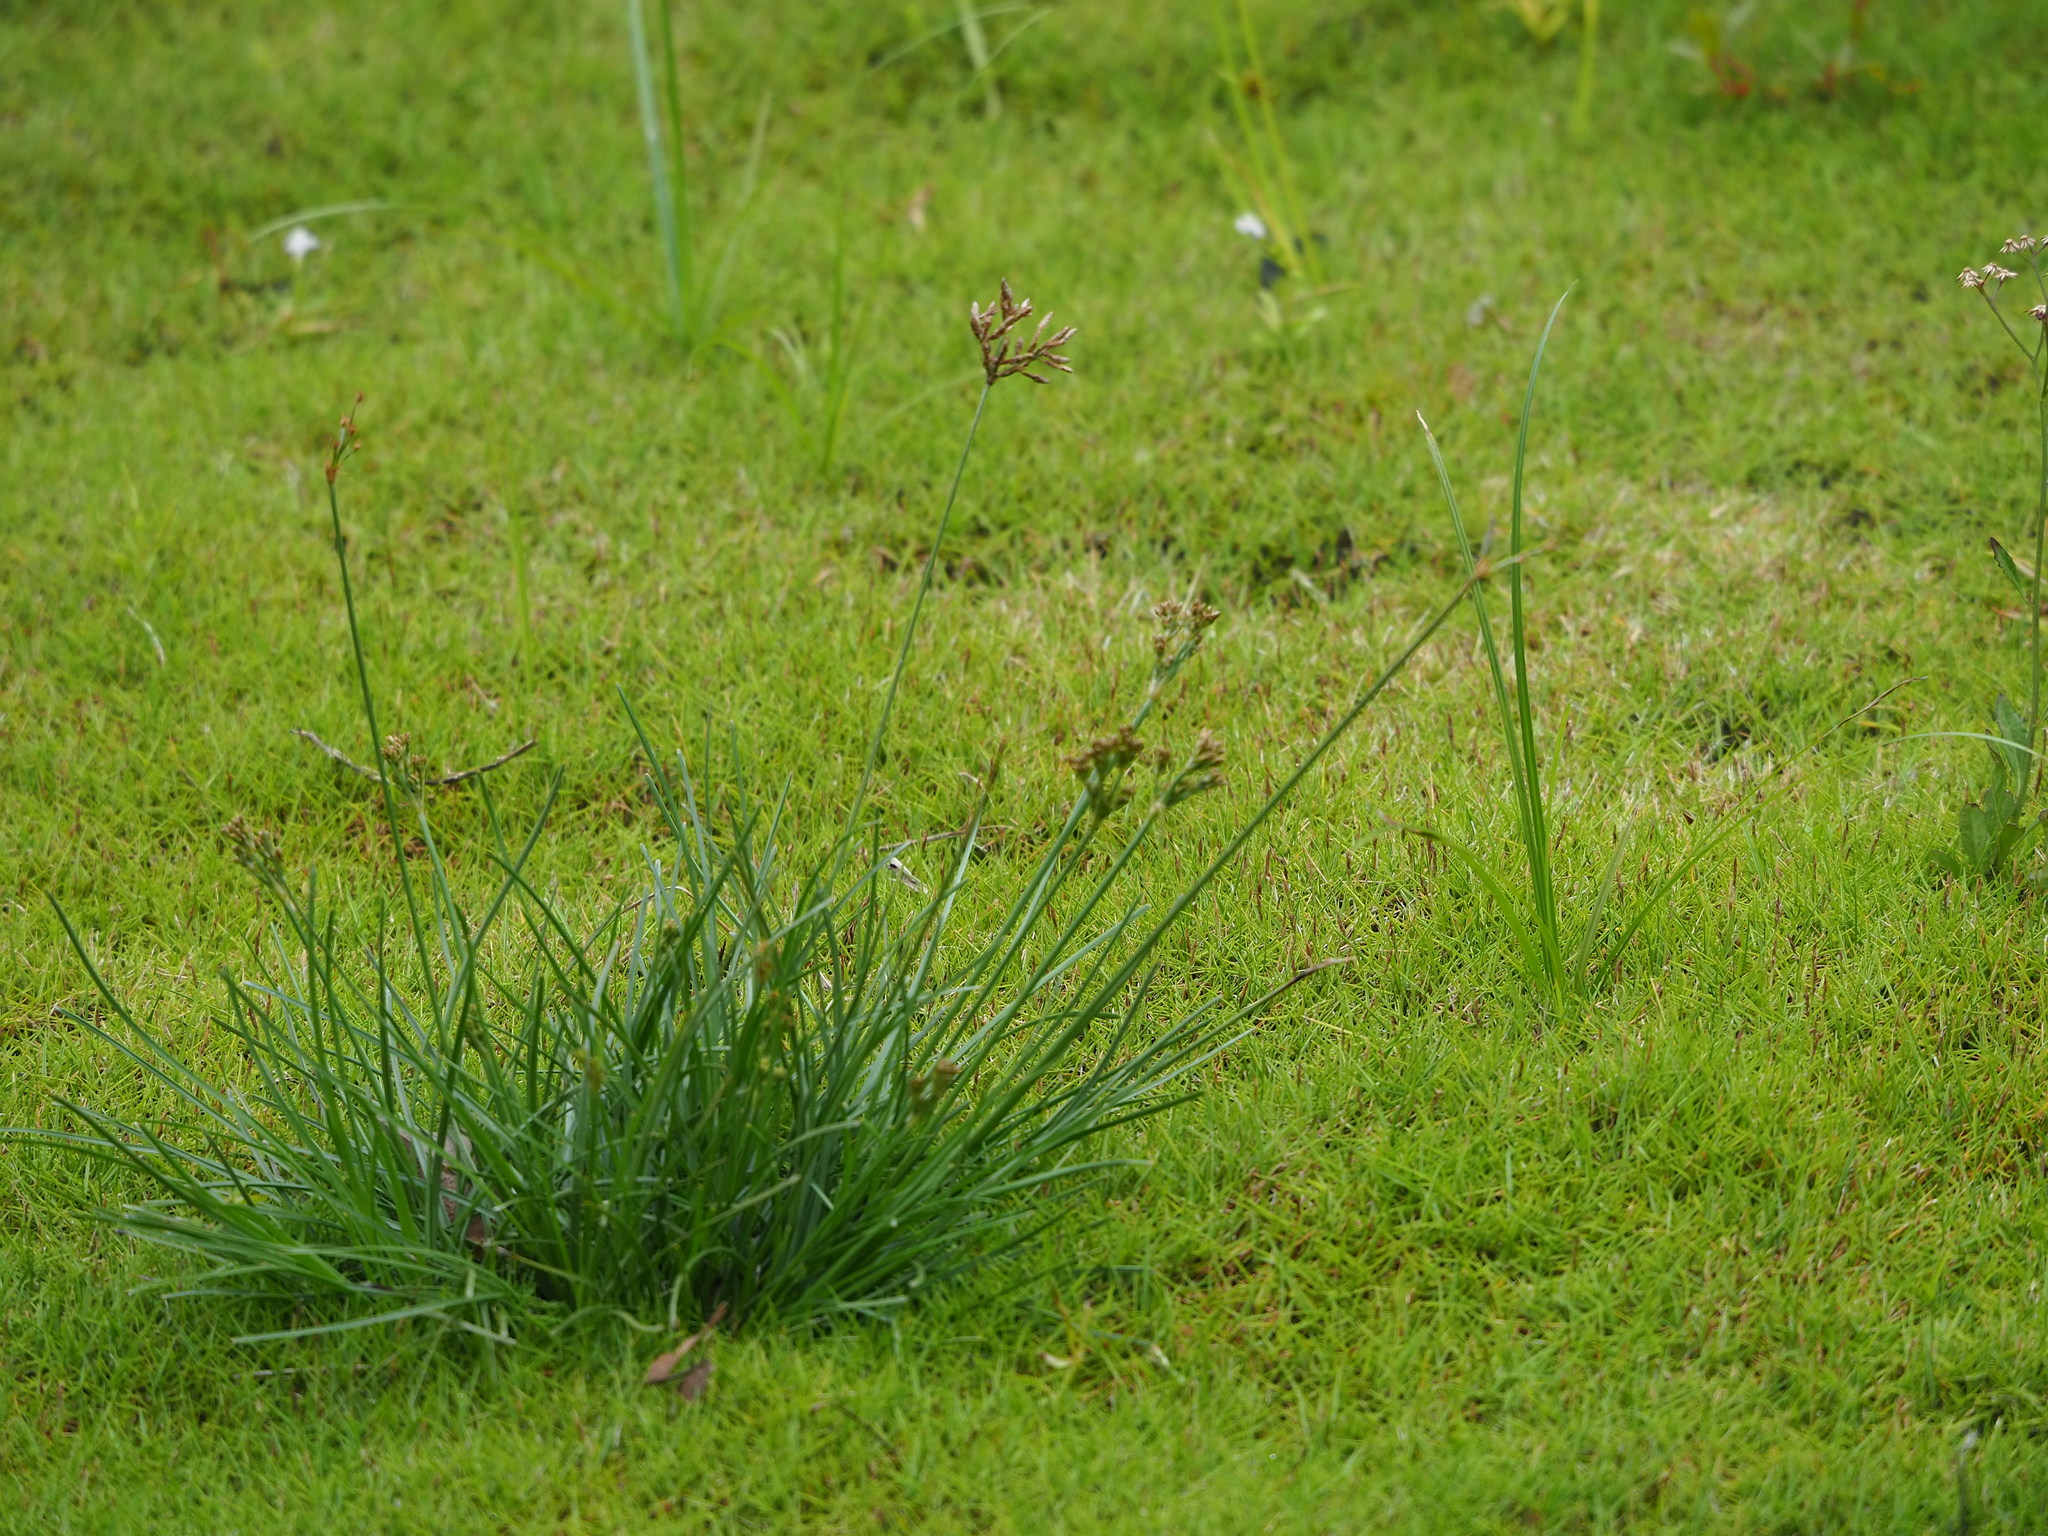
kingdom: Plantae
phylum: Tracheophyta
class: Liliopsida
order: Poales
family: Cyperaceae
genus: Fimbristylis
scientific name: Fimbristylis dichotoma
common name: Forked fimbry
